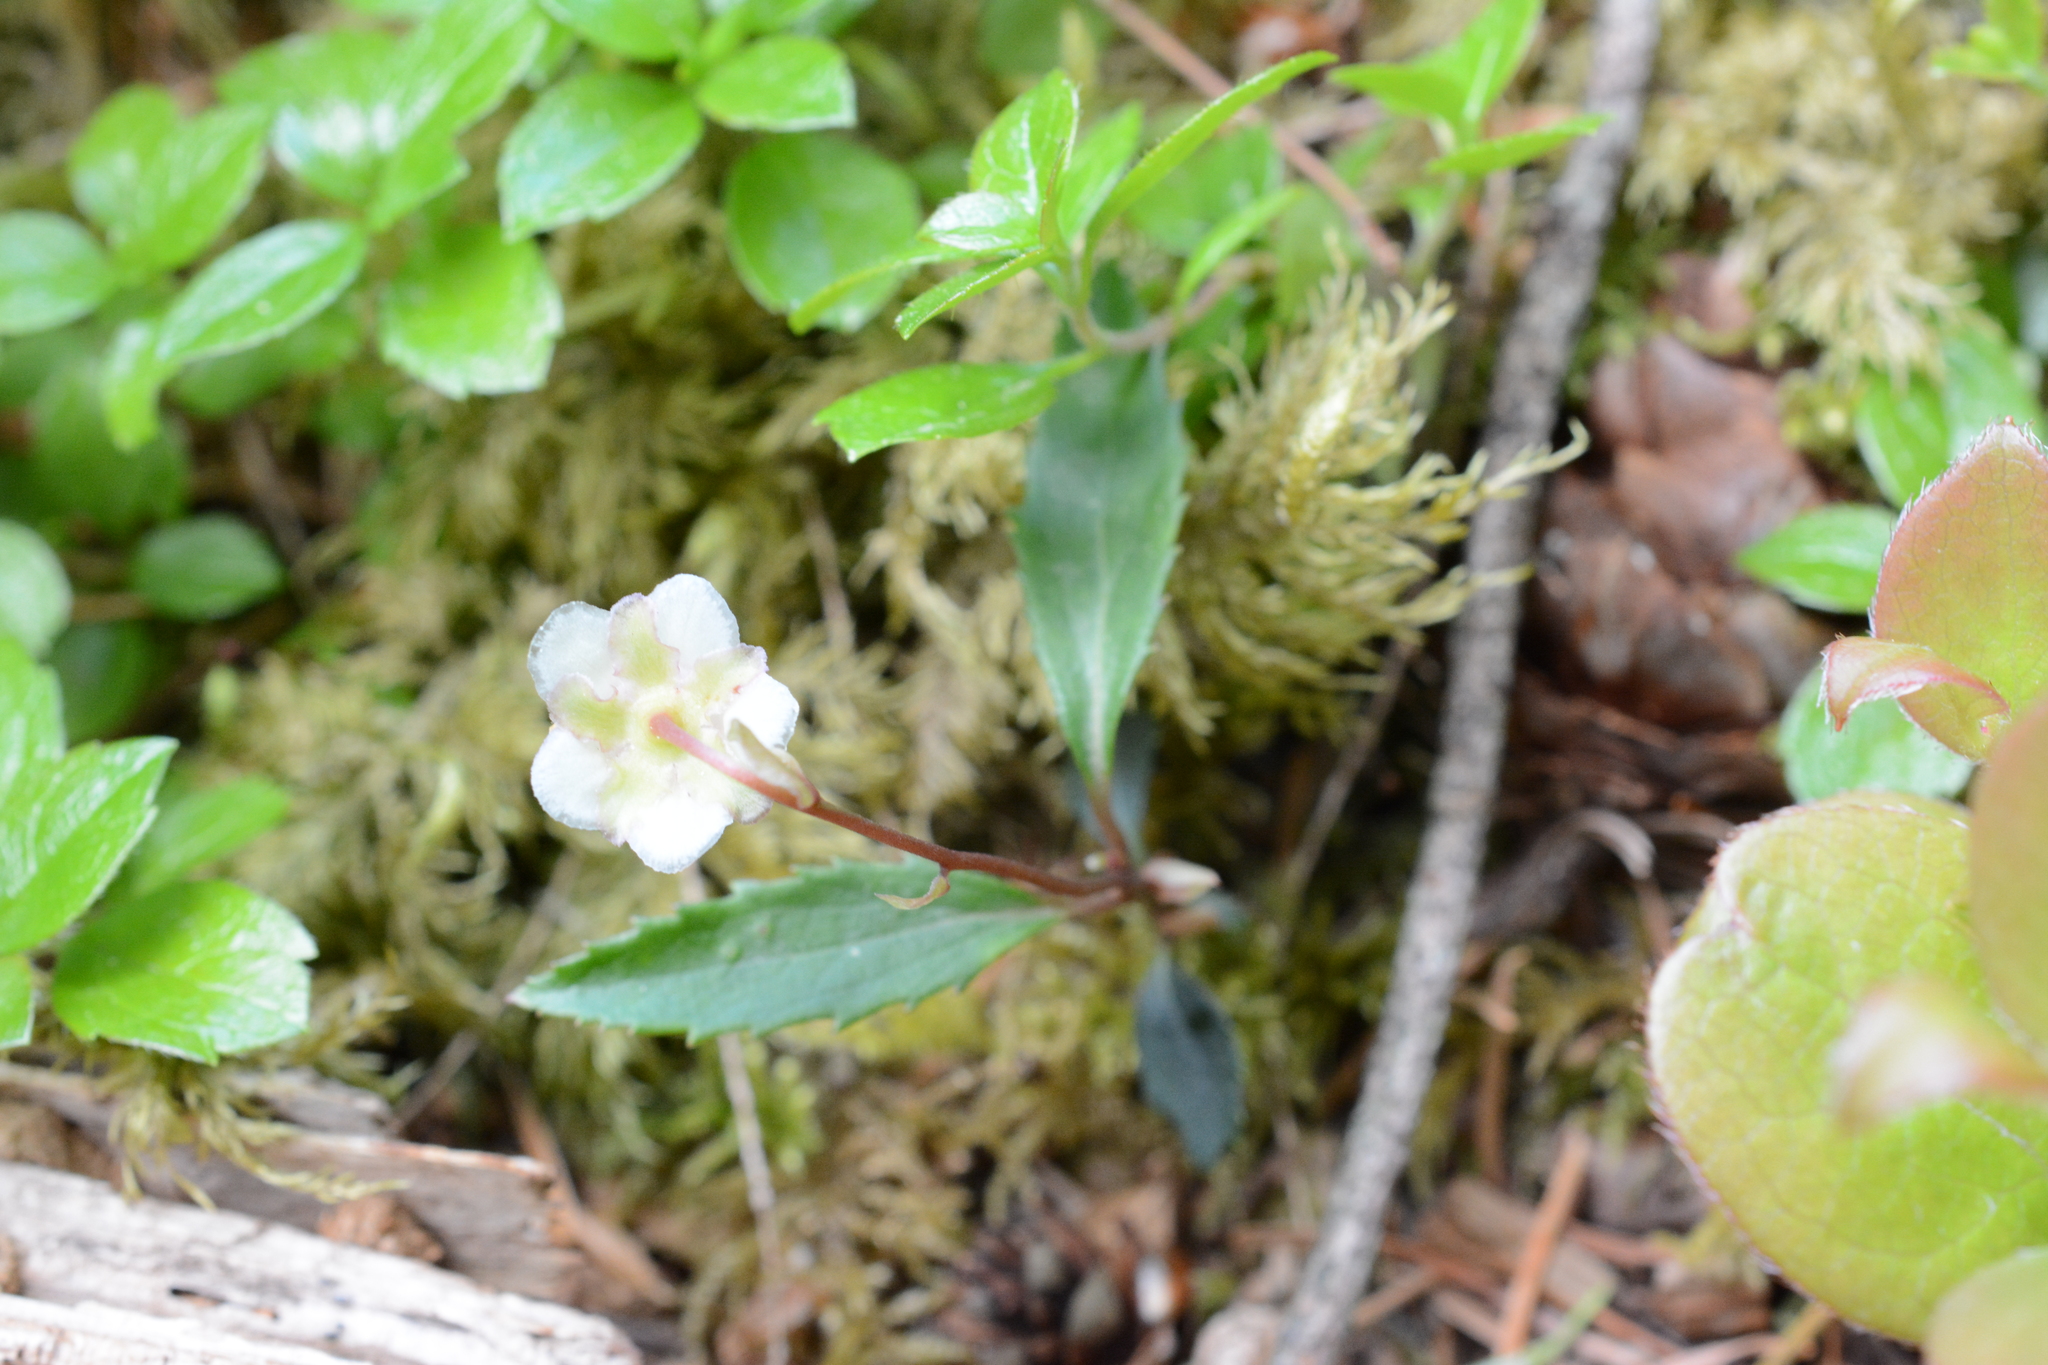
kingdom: Plantae
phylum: Tracheophyta
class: Magnoliopsida
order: Ericales
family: Ericaceae
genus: Chimaphila
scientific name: Chimaphila menziesii
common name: Menzies' pipsissewa
